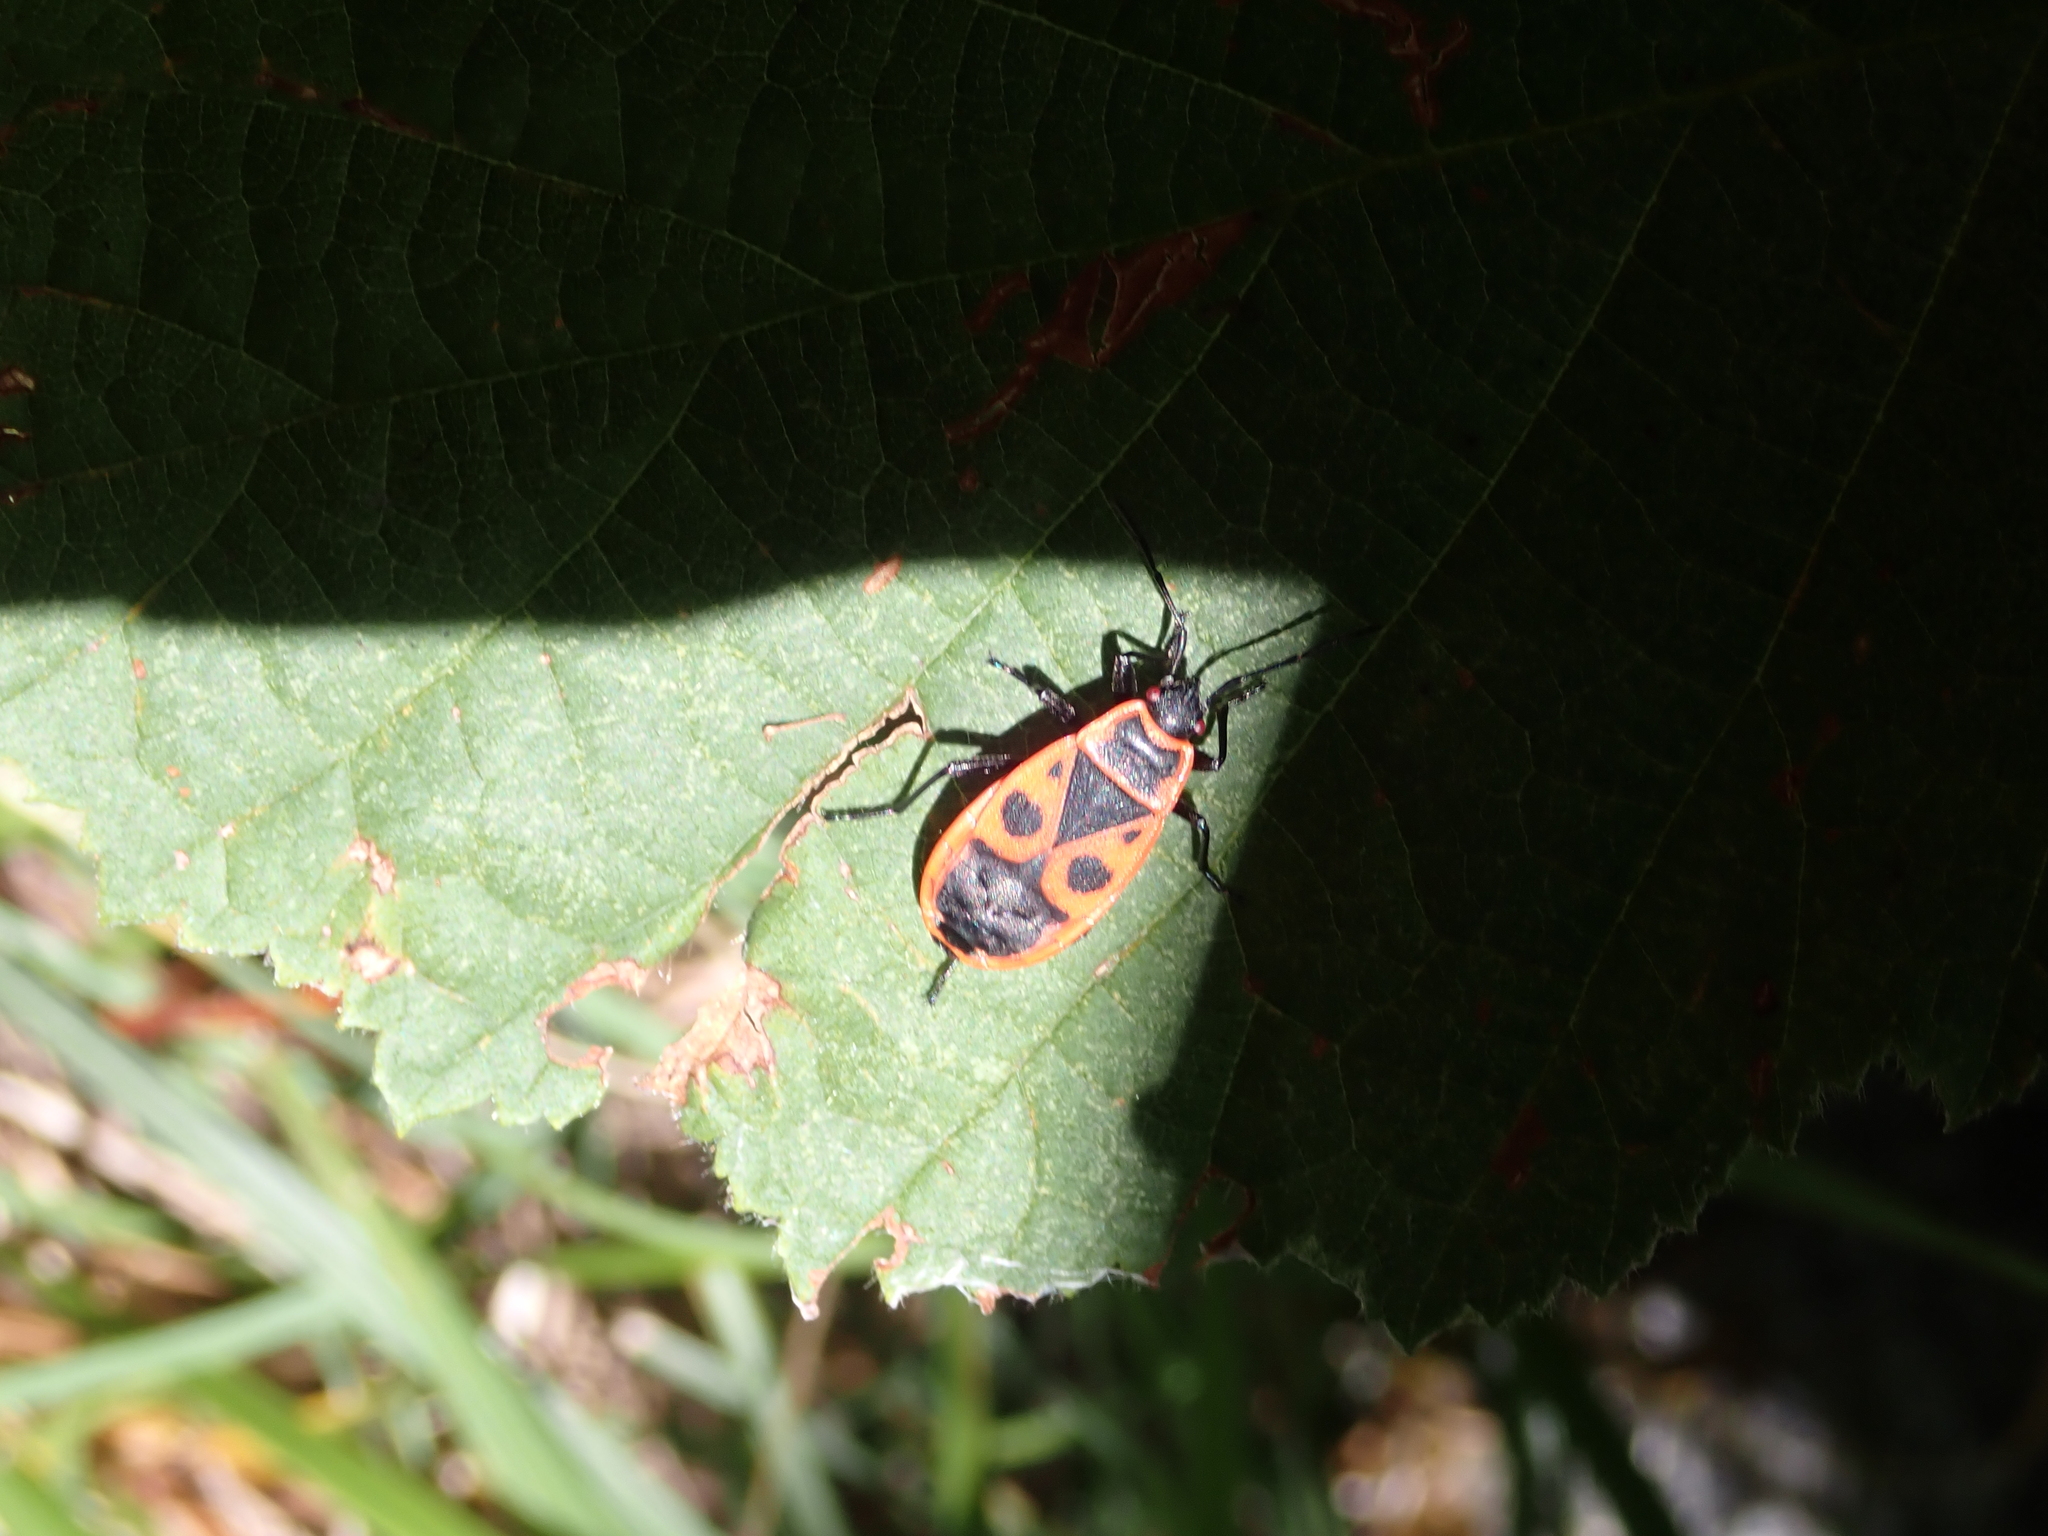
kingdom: Animalia
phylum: Arthropoda
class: Insecta
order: Hemiptera
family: Pyrrhocoridae
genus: Pyrrhocoris
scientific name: Pyrrhocoris apterus
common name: Firebug
